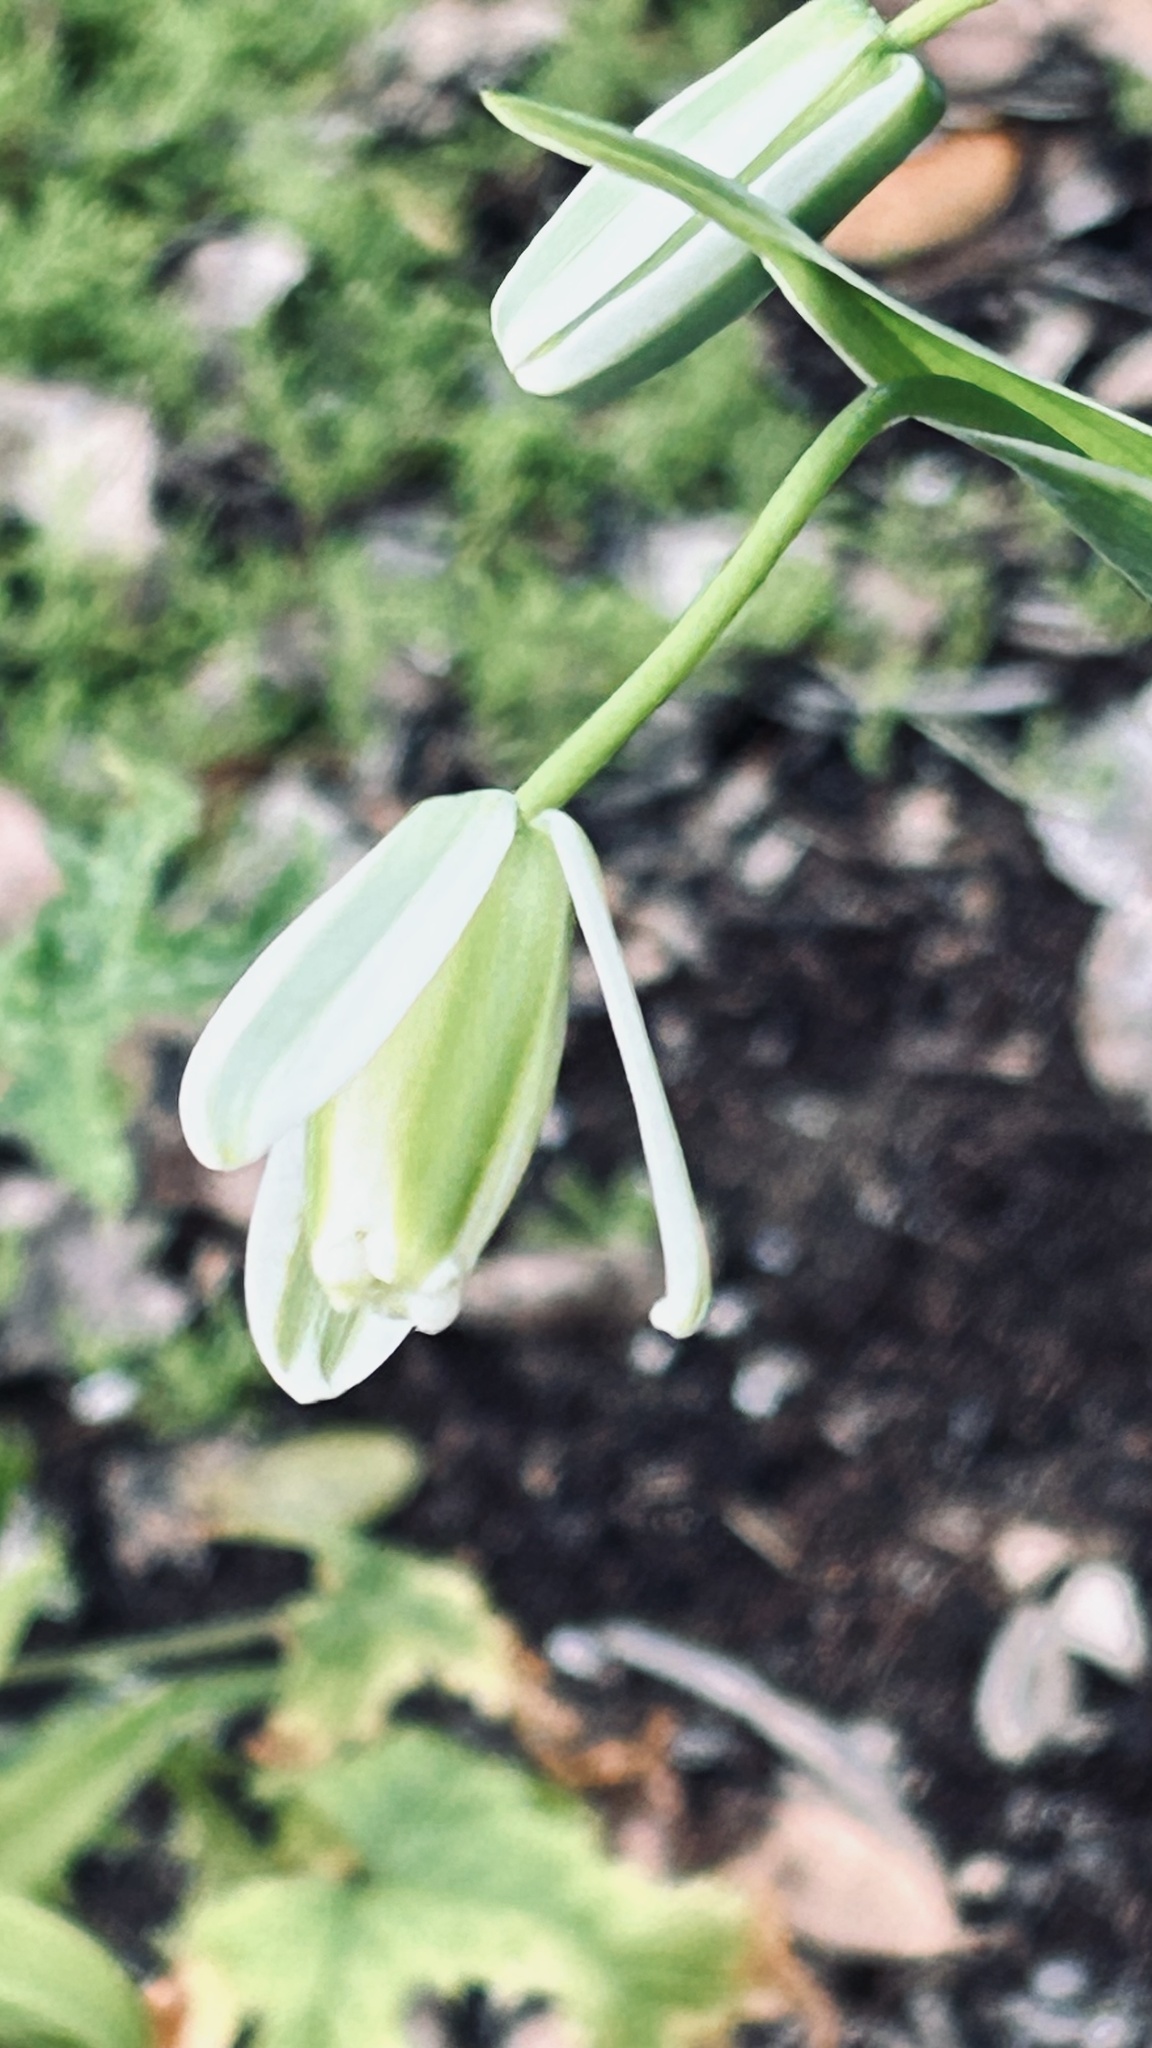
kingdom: Plantae
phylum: Tracheophyta
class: Liliopsida
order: Asparagales
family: Asparagaceae
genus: Albuca
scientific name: Albuca canadensis
